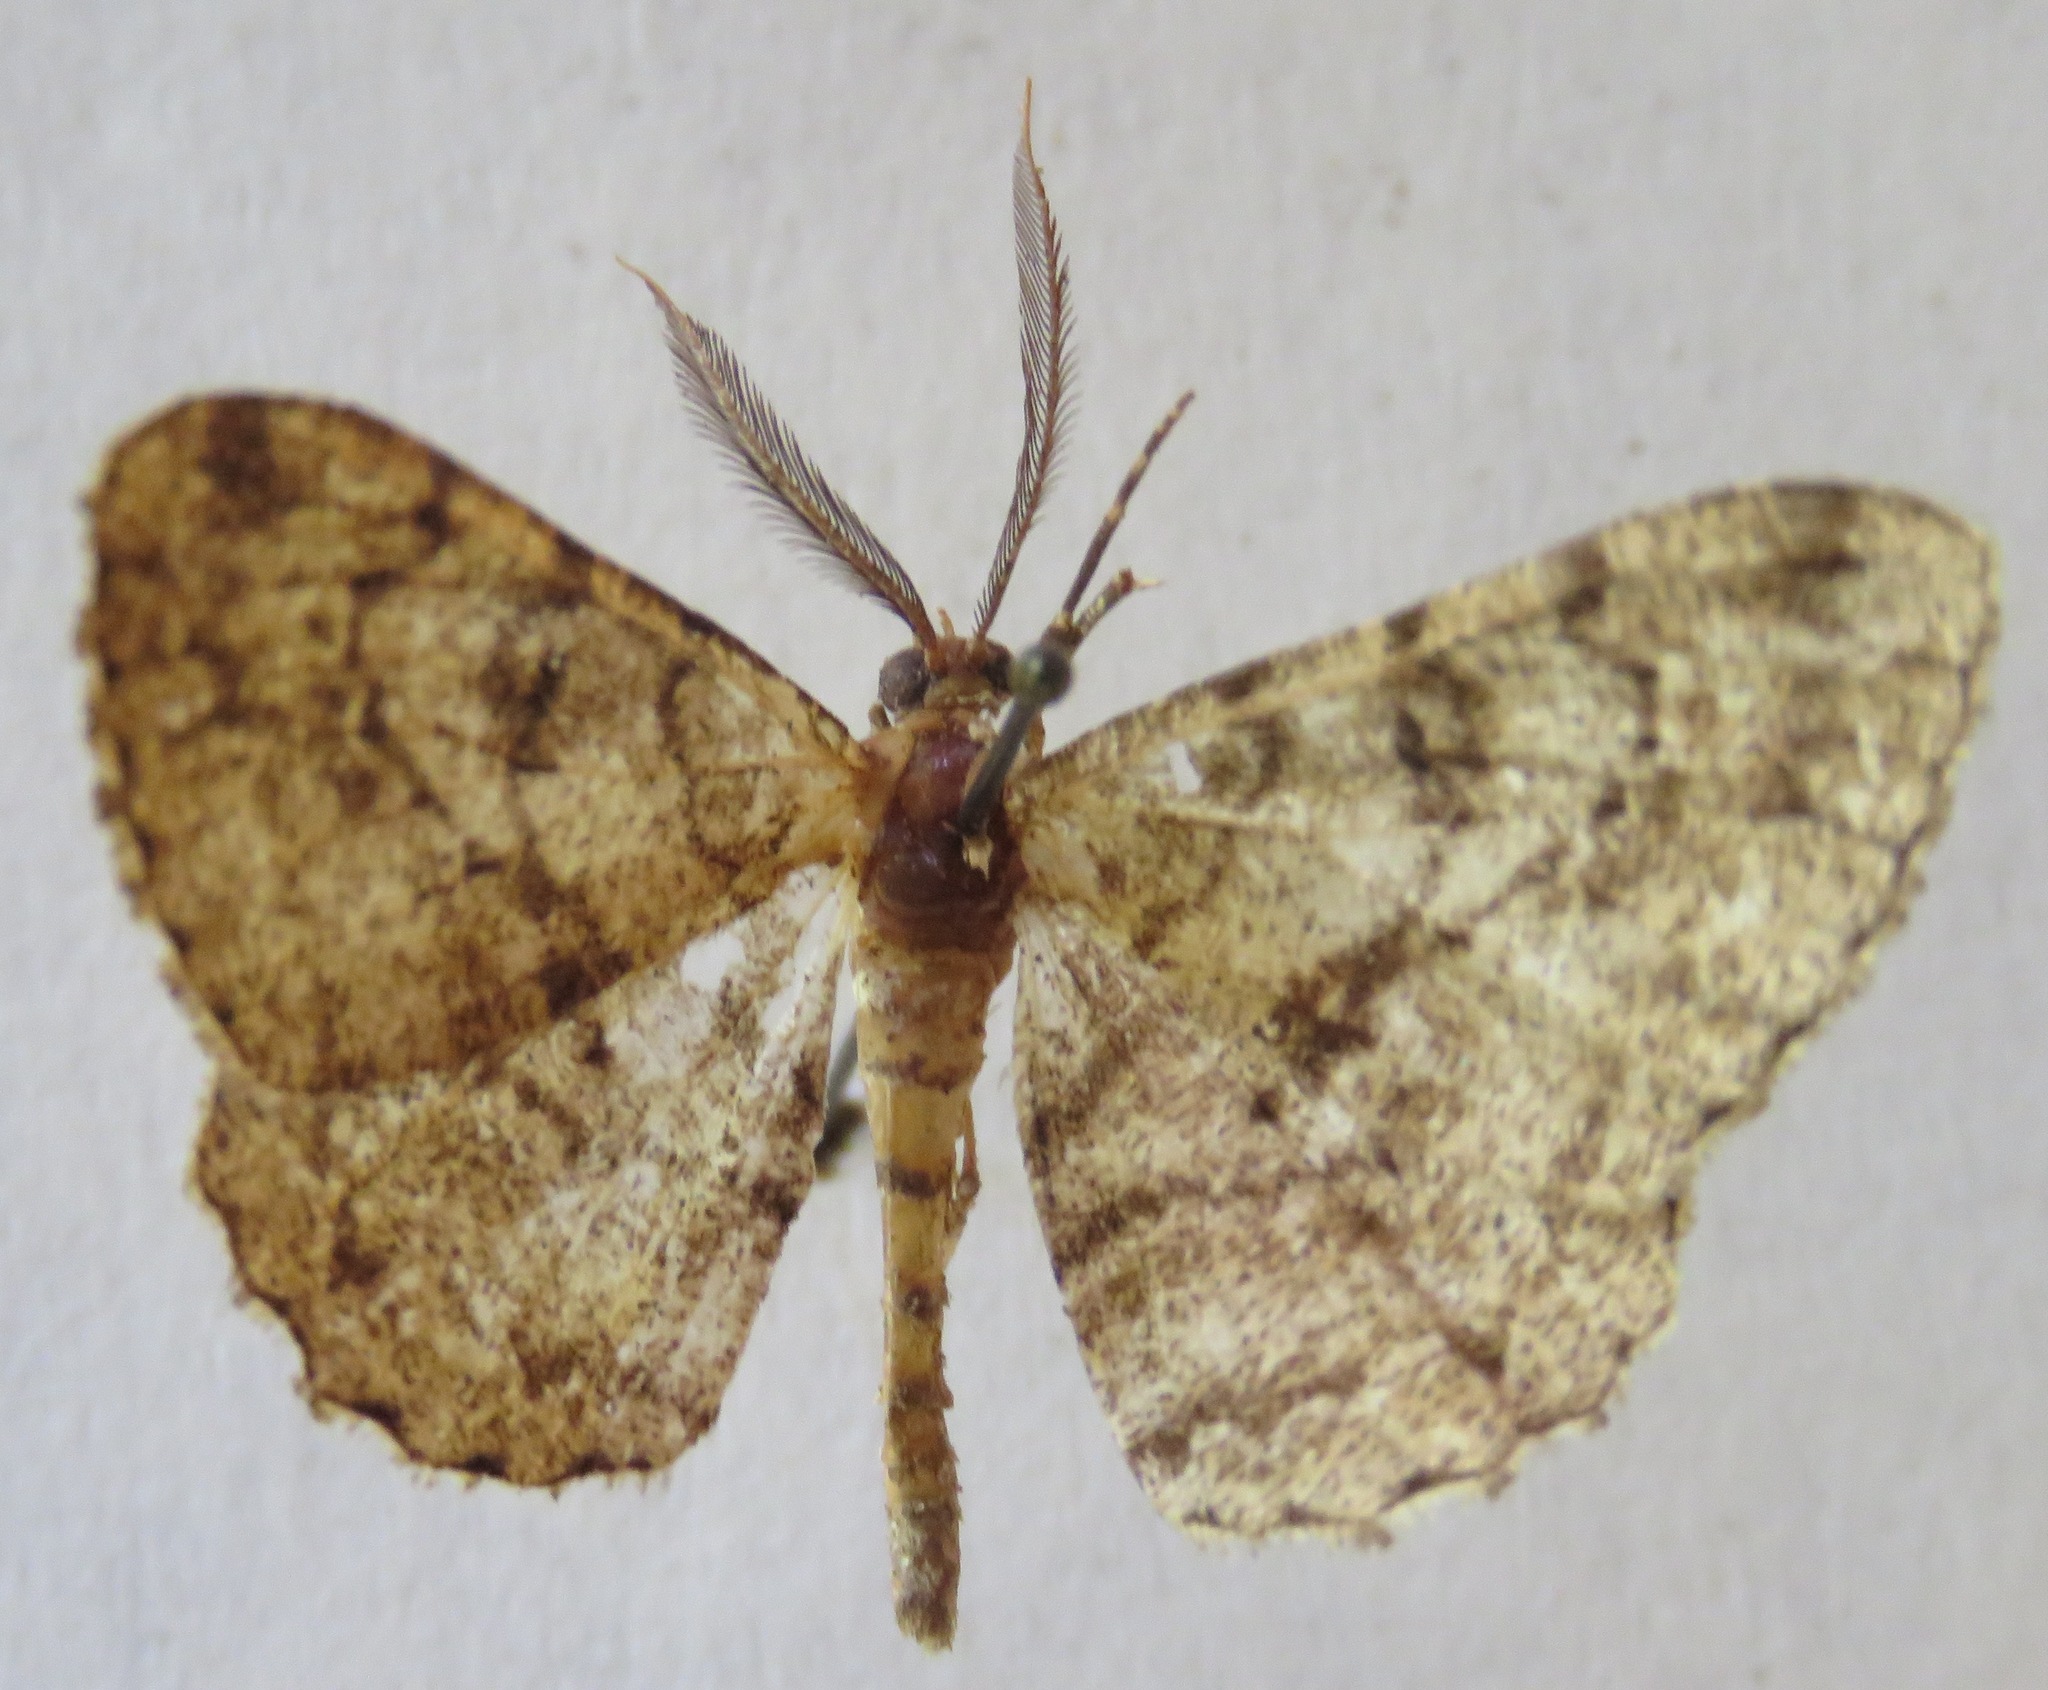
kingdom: Animalia
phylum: Arthropoda
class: Insecta
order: Lepidoptera
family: Geometridae
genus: Peribatodes
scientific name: Peribatodes rhomboidaria
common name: Willow beauty
